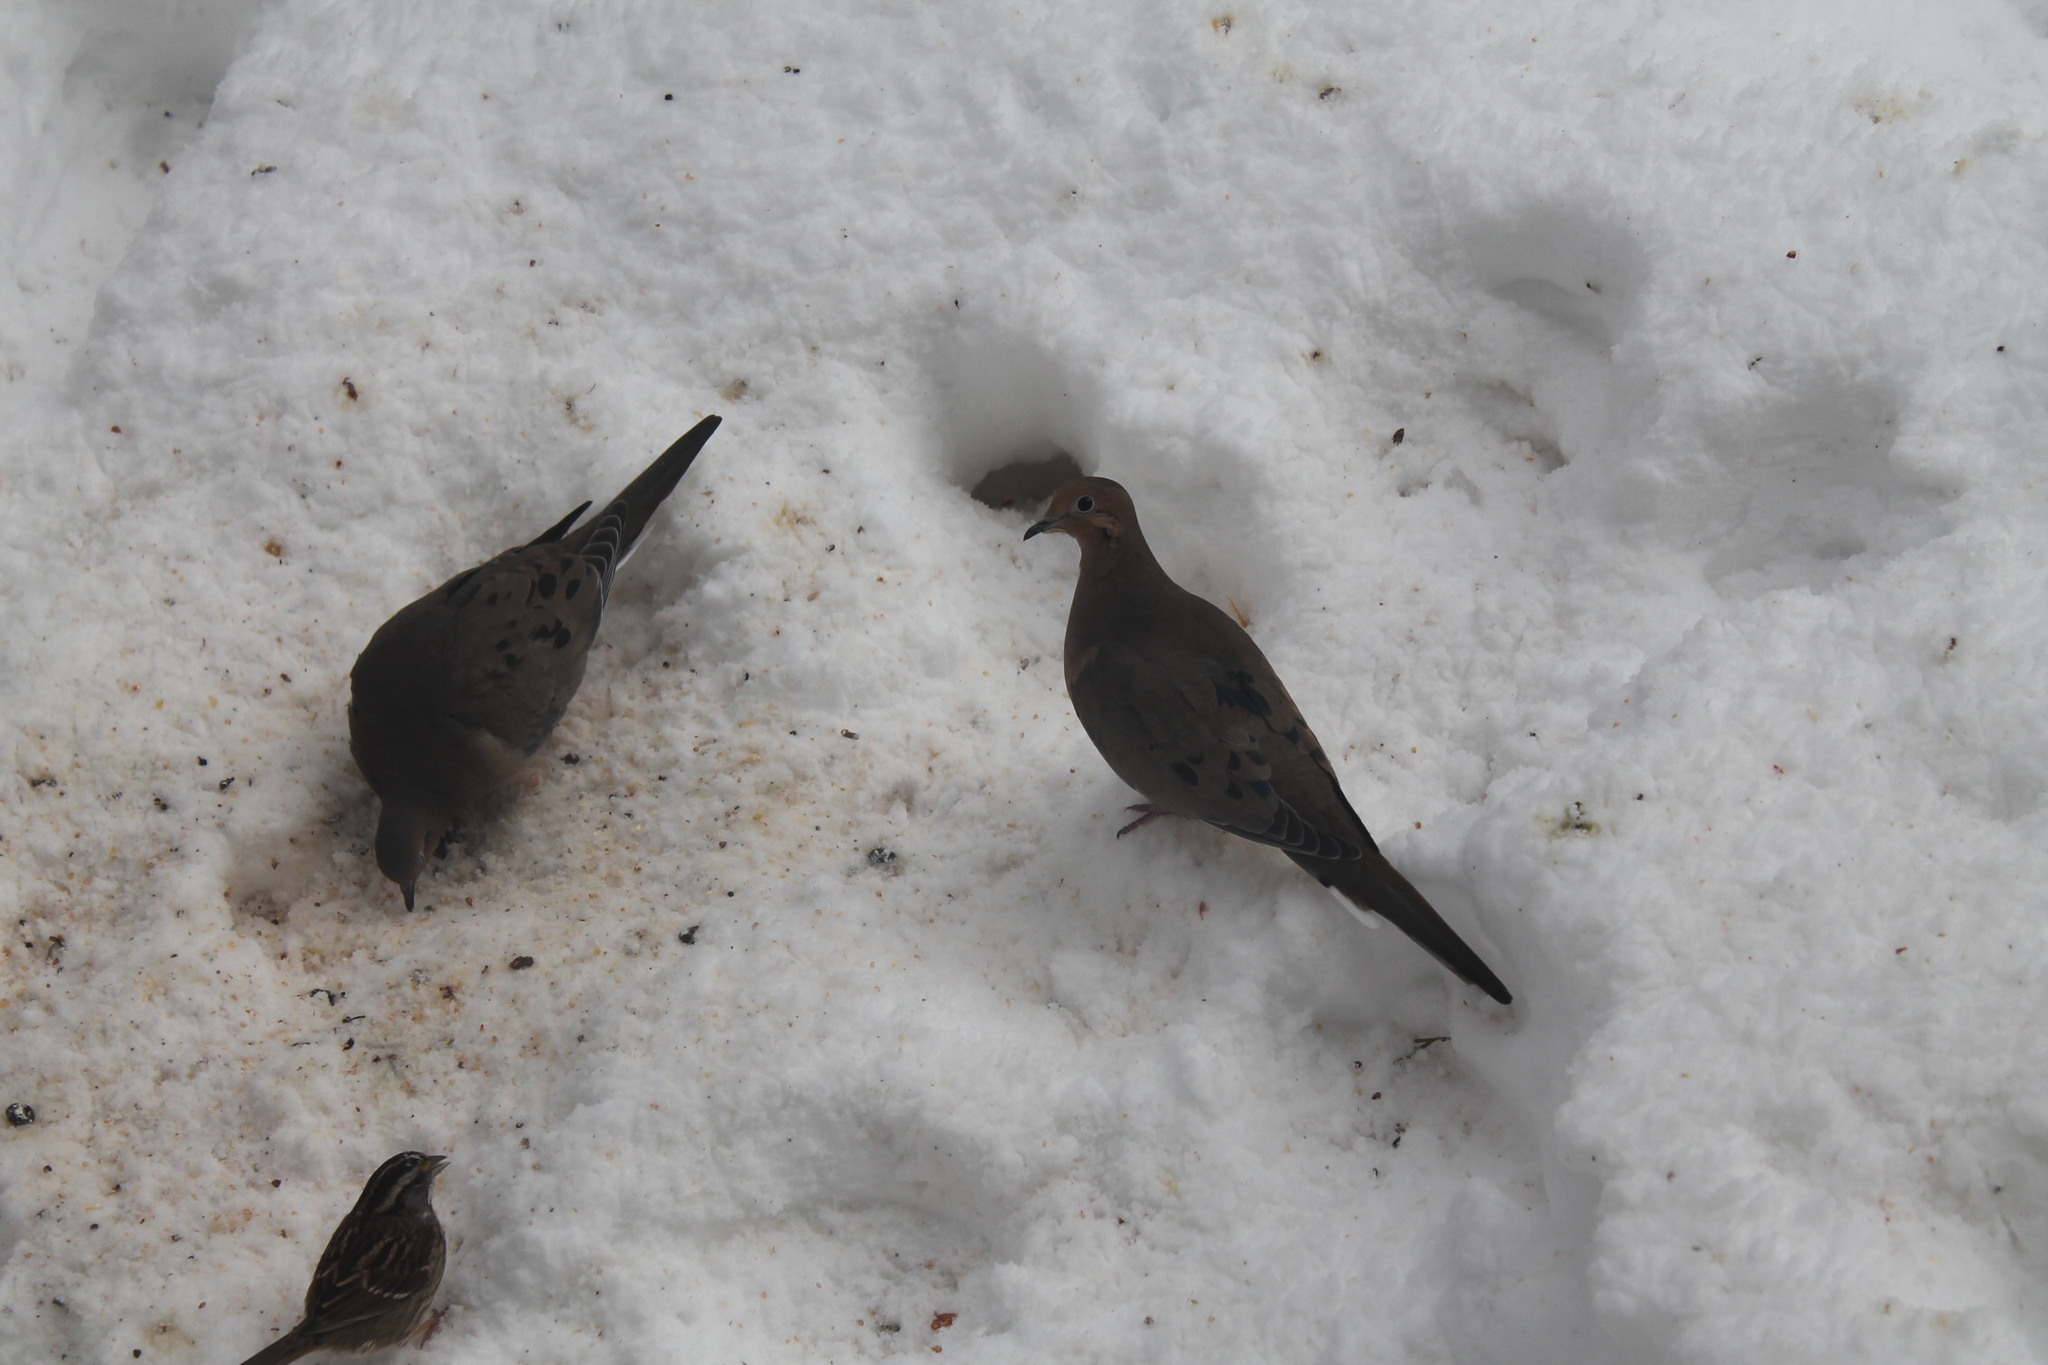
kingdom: Animalia
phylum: Chordata
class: Aves
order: Columbiformes
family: Columbidae
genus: Zenaida
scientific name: Zenaida macroura
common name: Mourning dove
